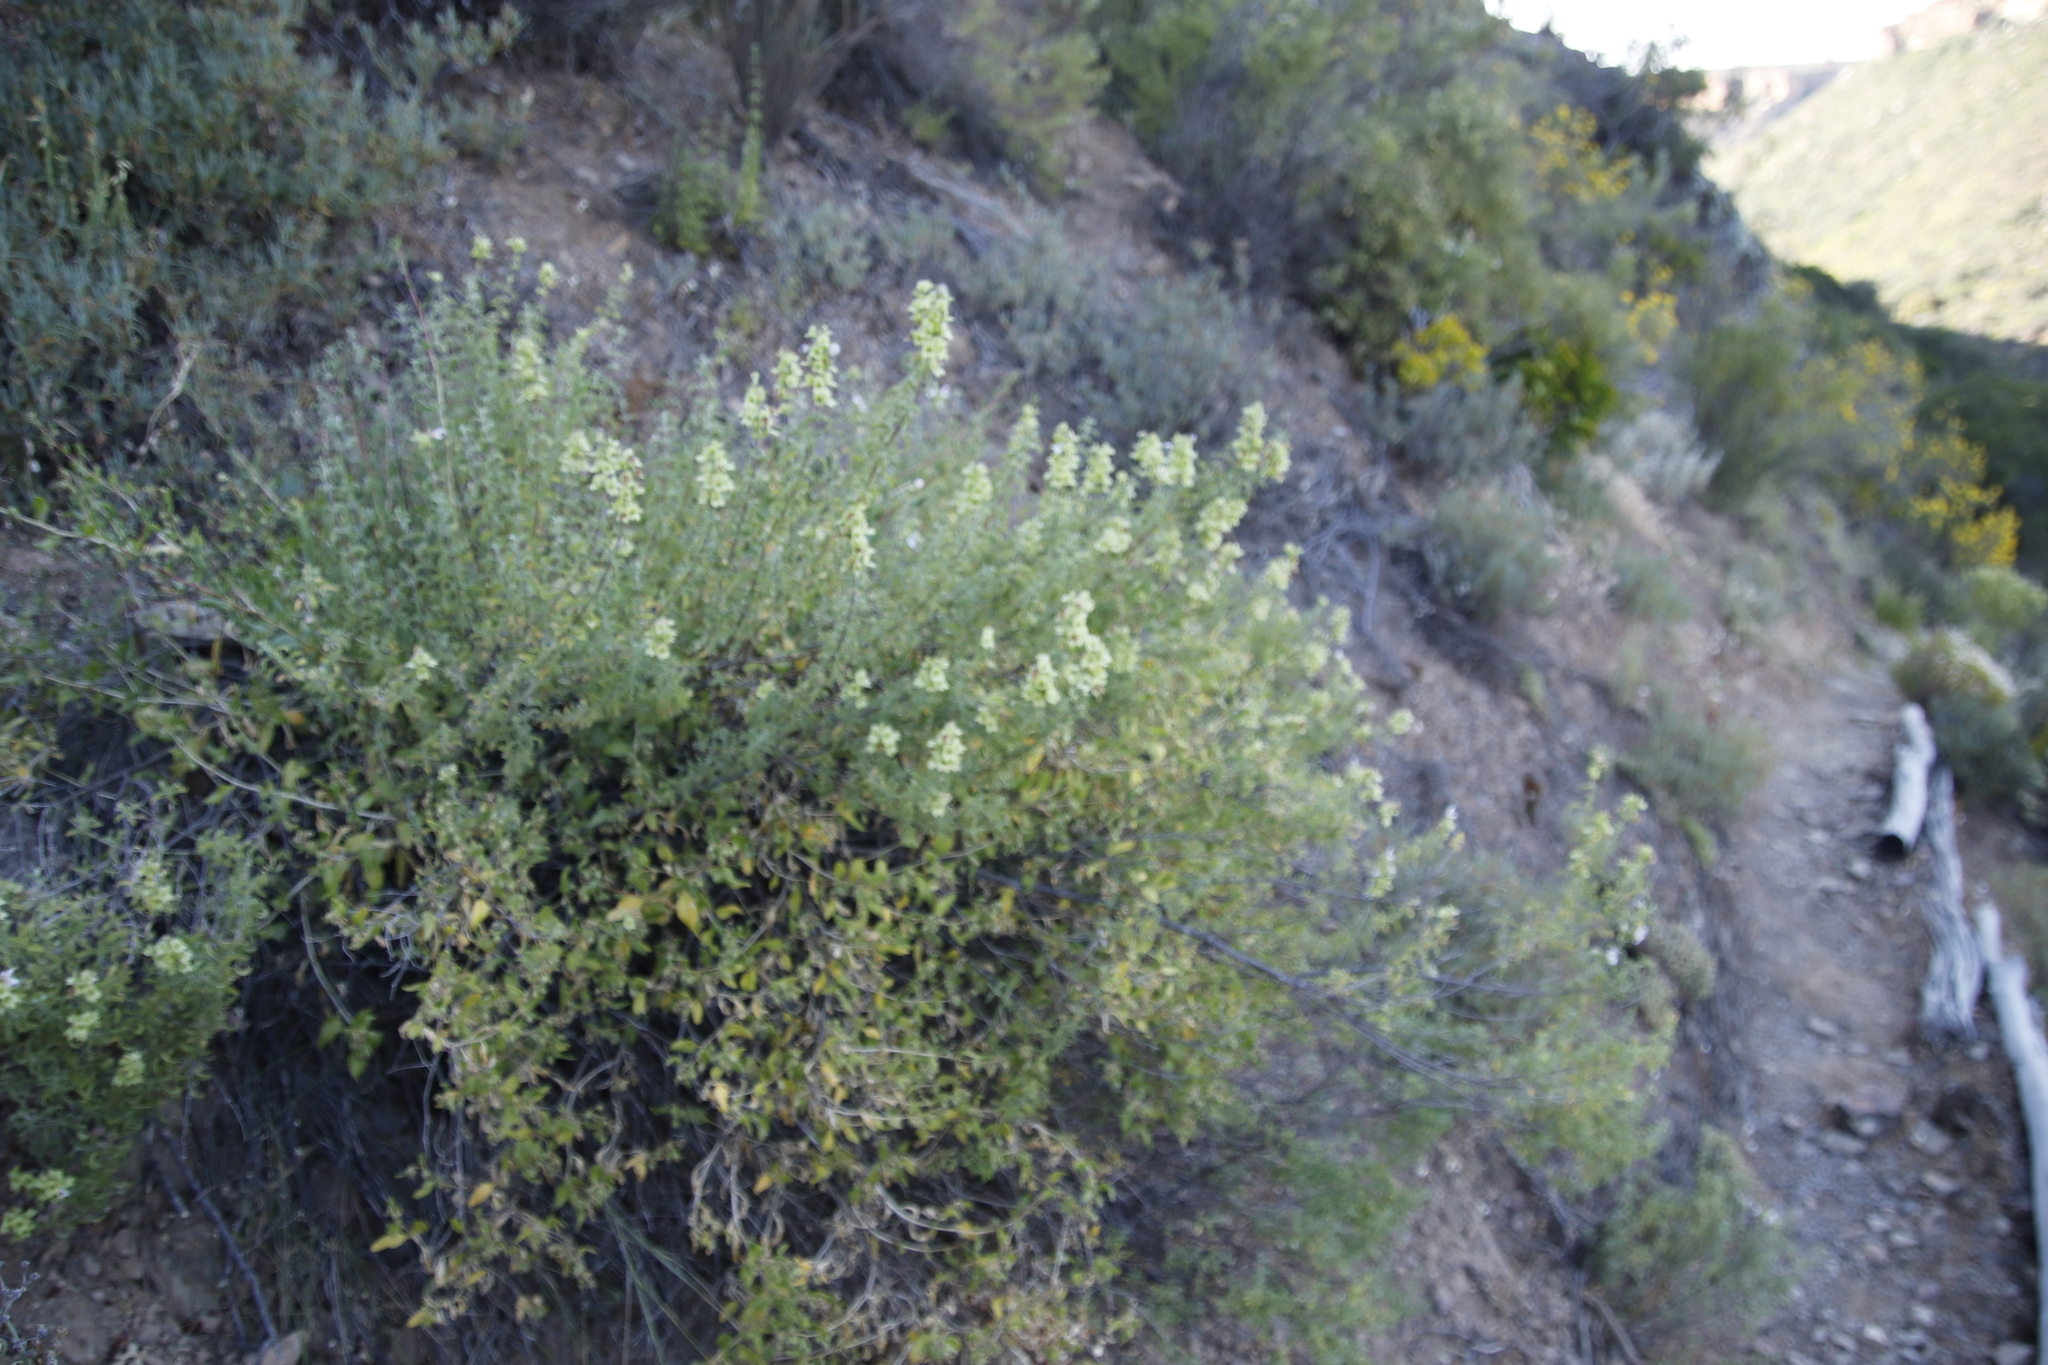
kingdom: Plantae
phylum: Tracheophyta
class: Magnoliopsida
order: Lamiales
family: Lamiaceae
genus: Salvia
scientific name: Salvia dentata
